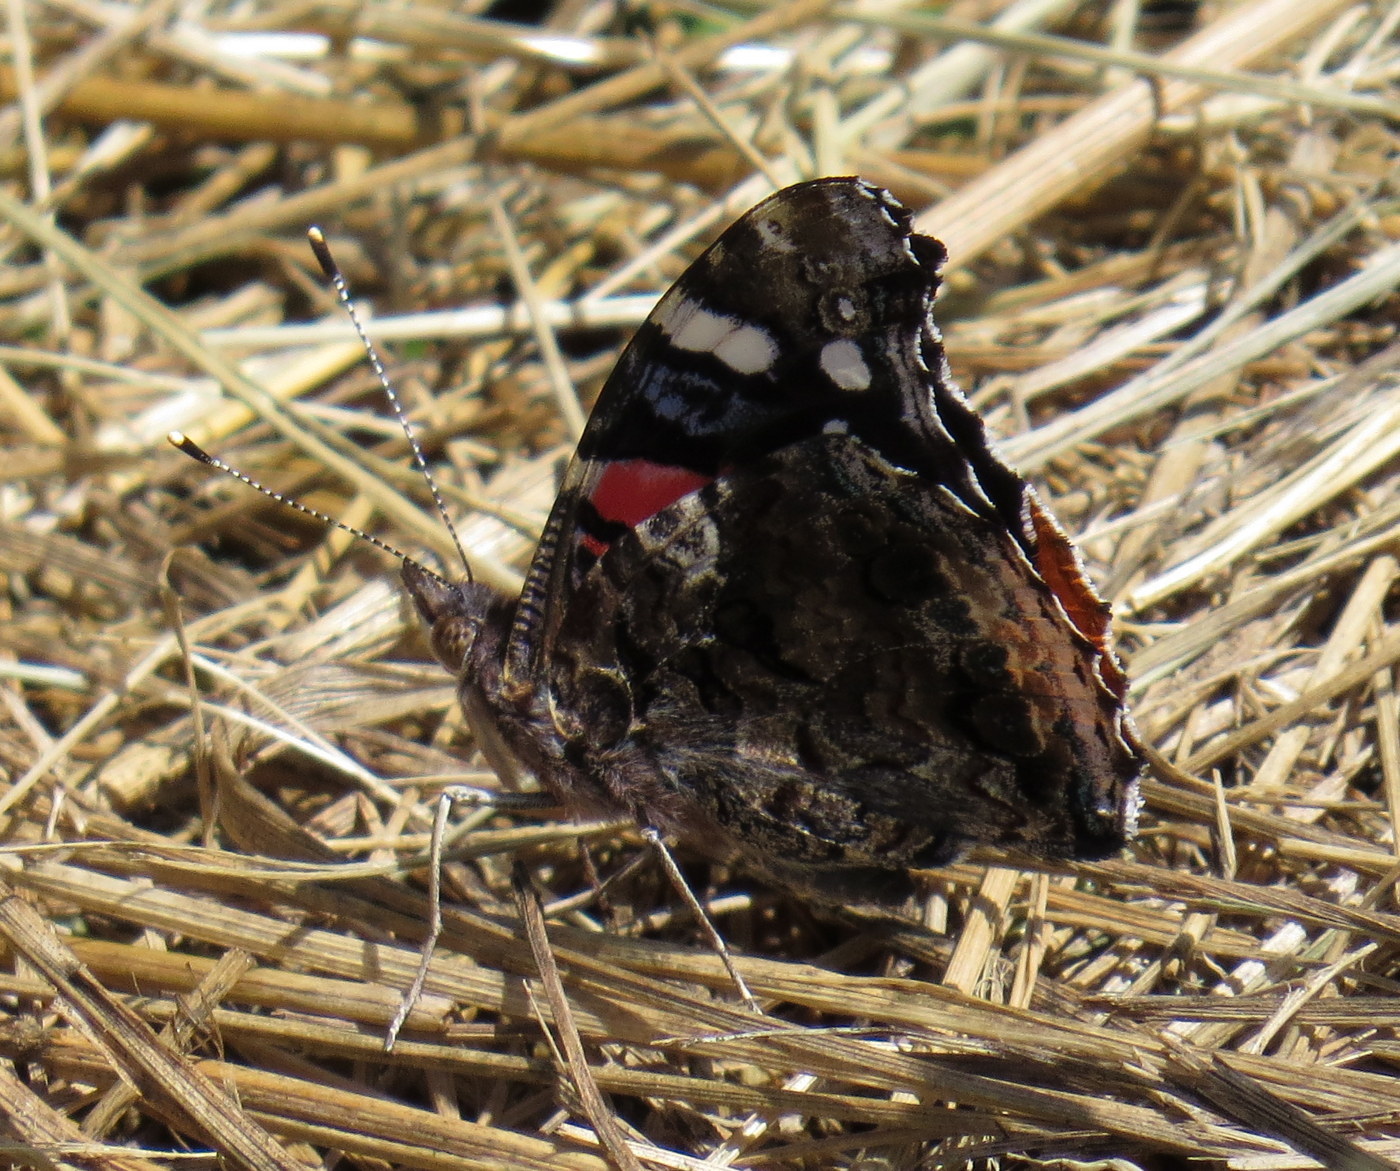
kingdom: Animalia
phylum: Arthropoda
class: Insecta
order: Lepidoptera
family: Nymphalidae
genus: Vanessa
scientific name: Vanessa atalanta
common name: Red admiral
